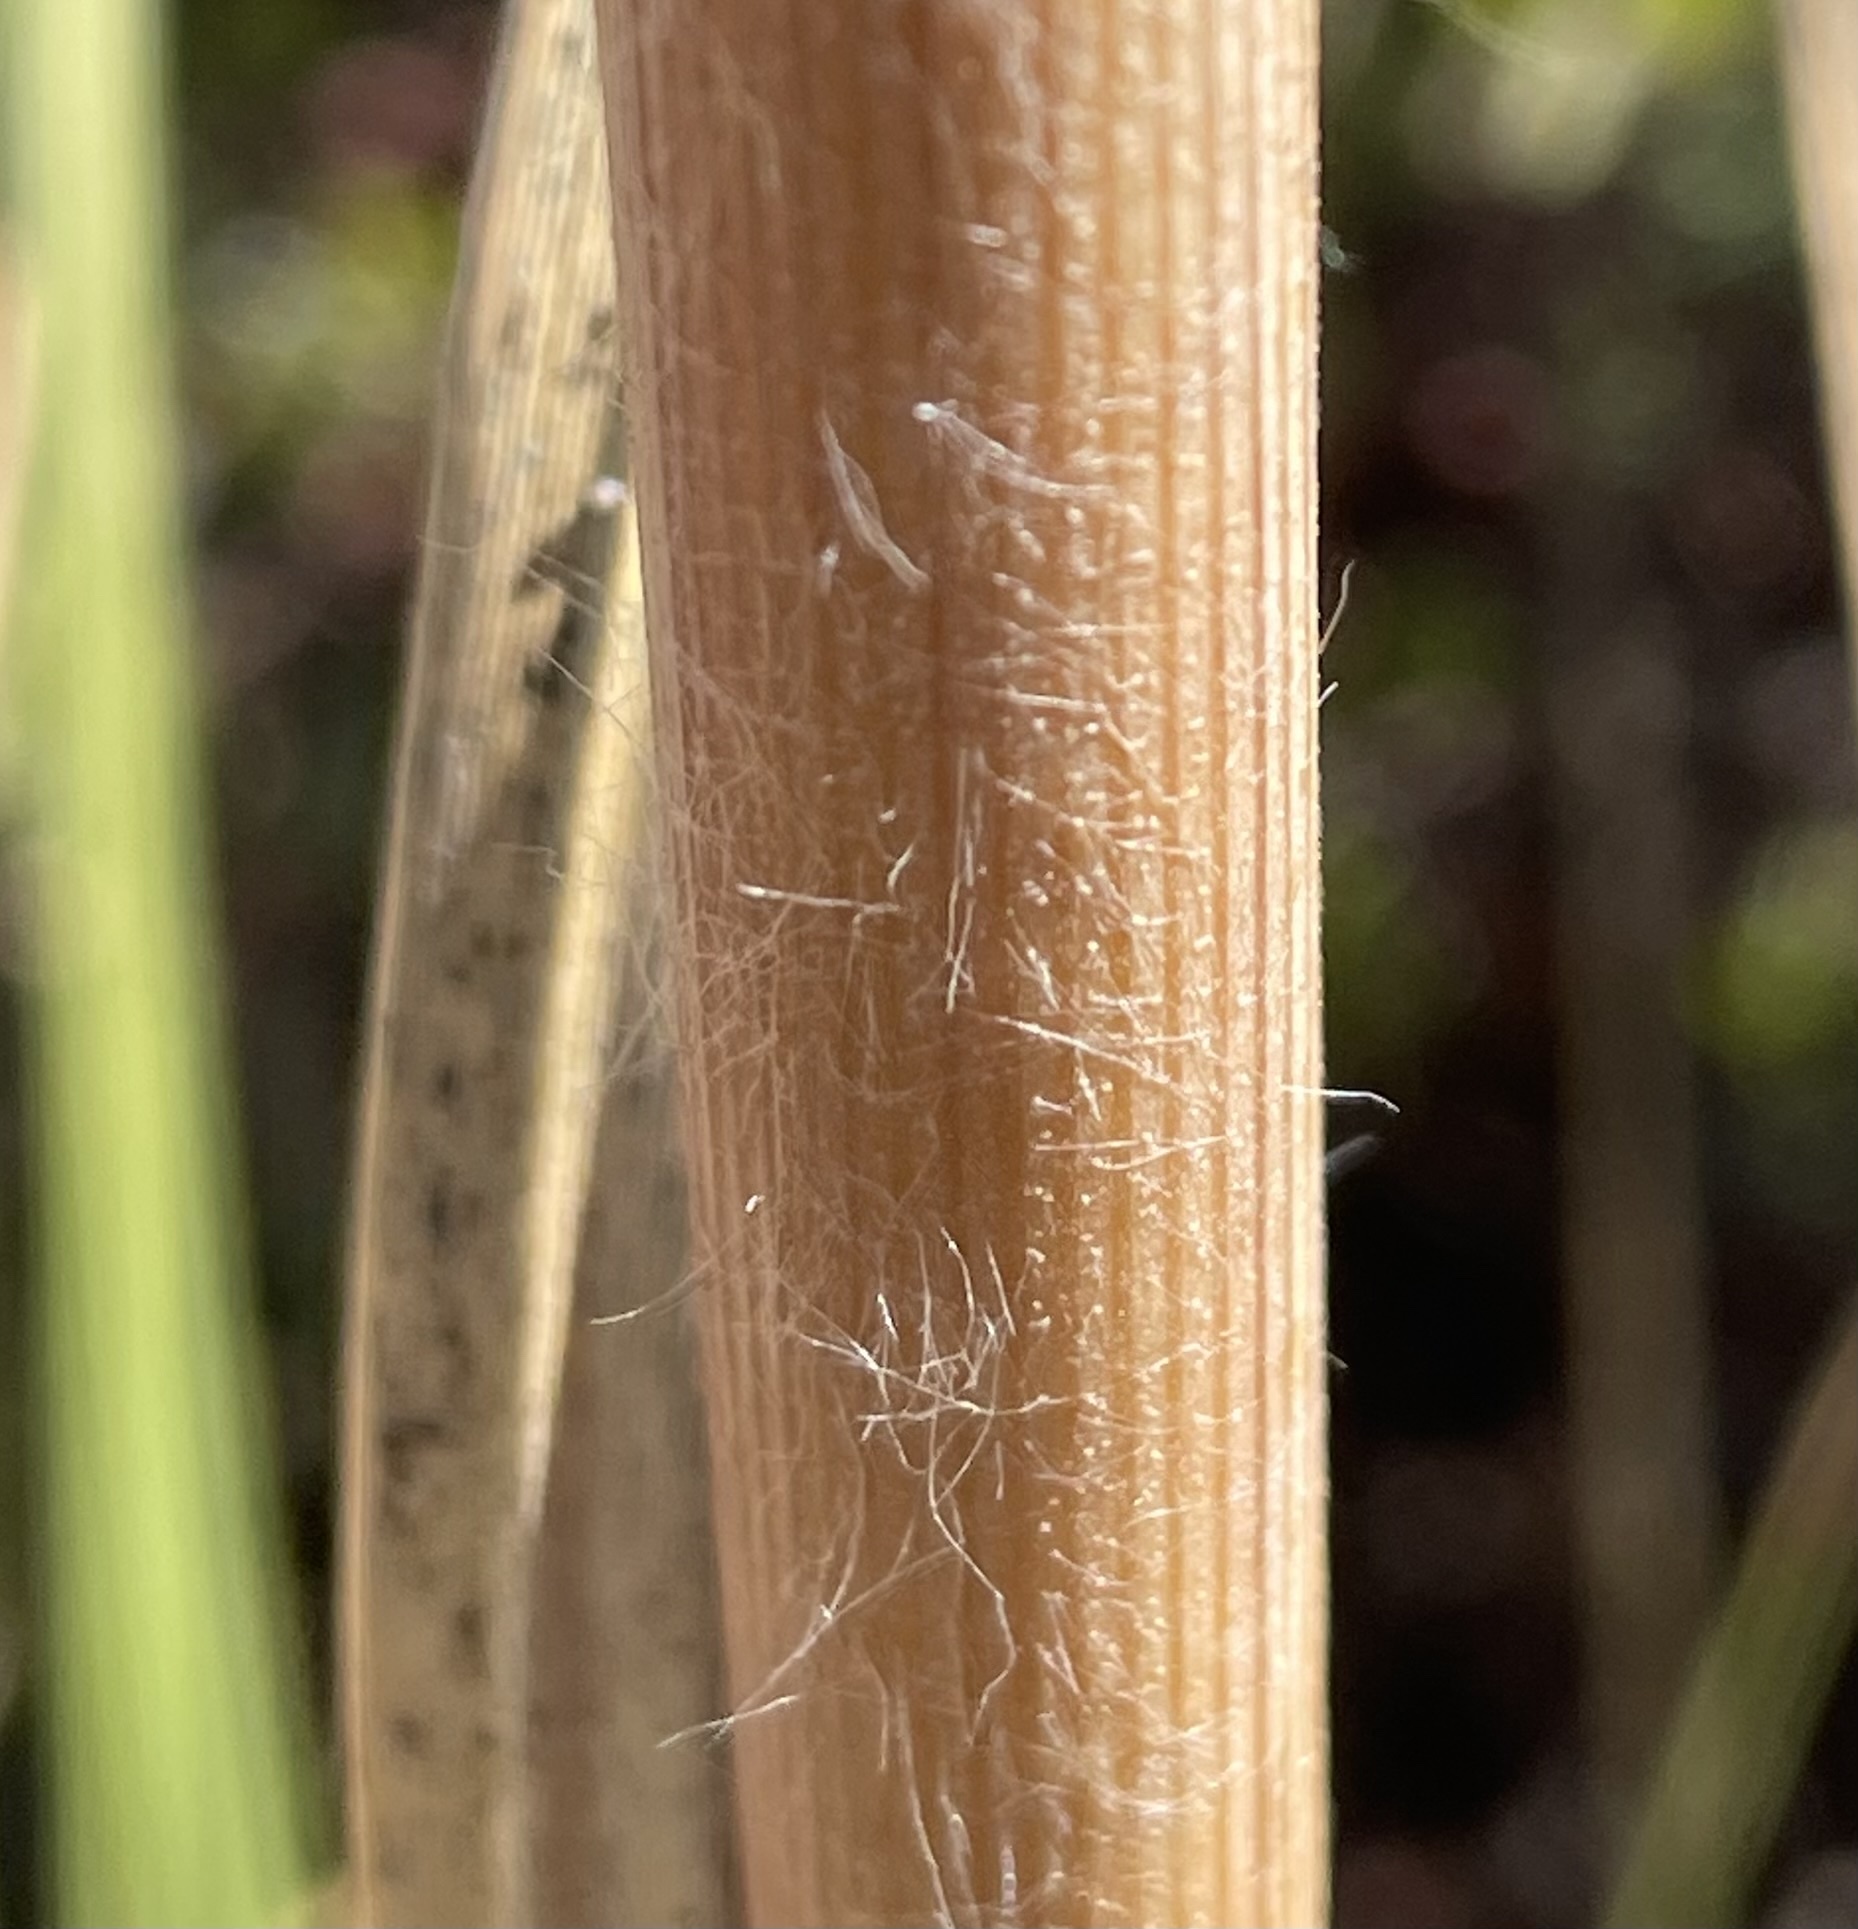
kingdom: Plantae
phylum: Tracheophyta
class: Liliopsida
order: Poales
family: Poaceae
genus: Cortaderia
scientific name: Cortaderia jubata
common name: Purple pampas grass
